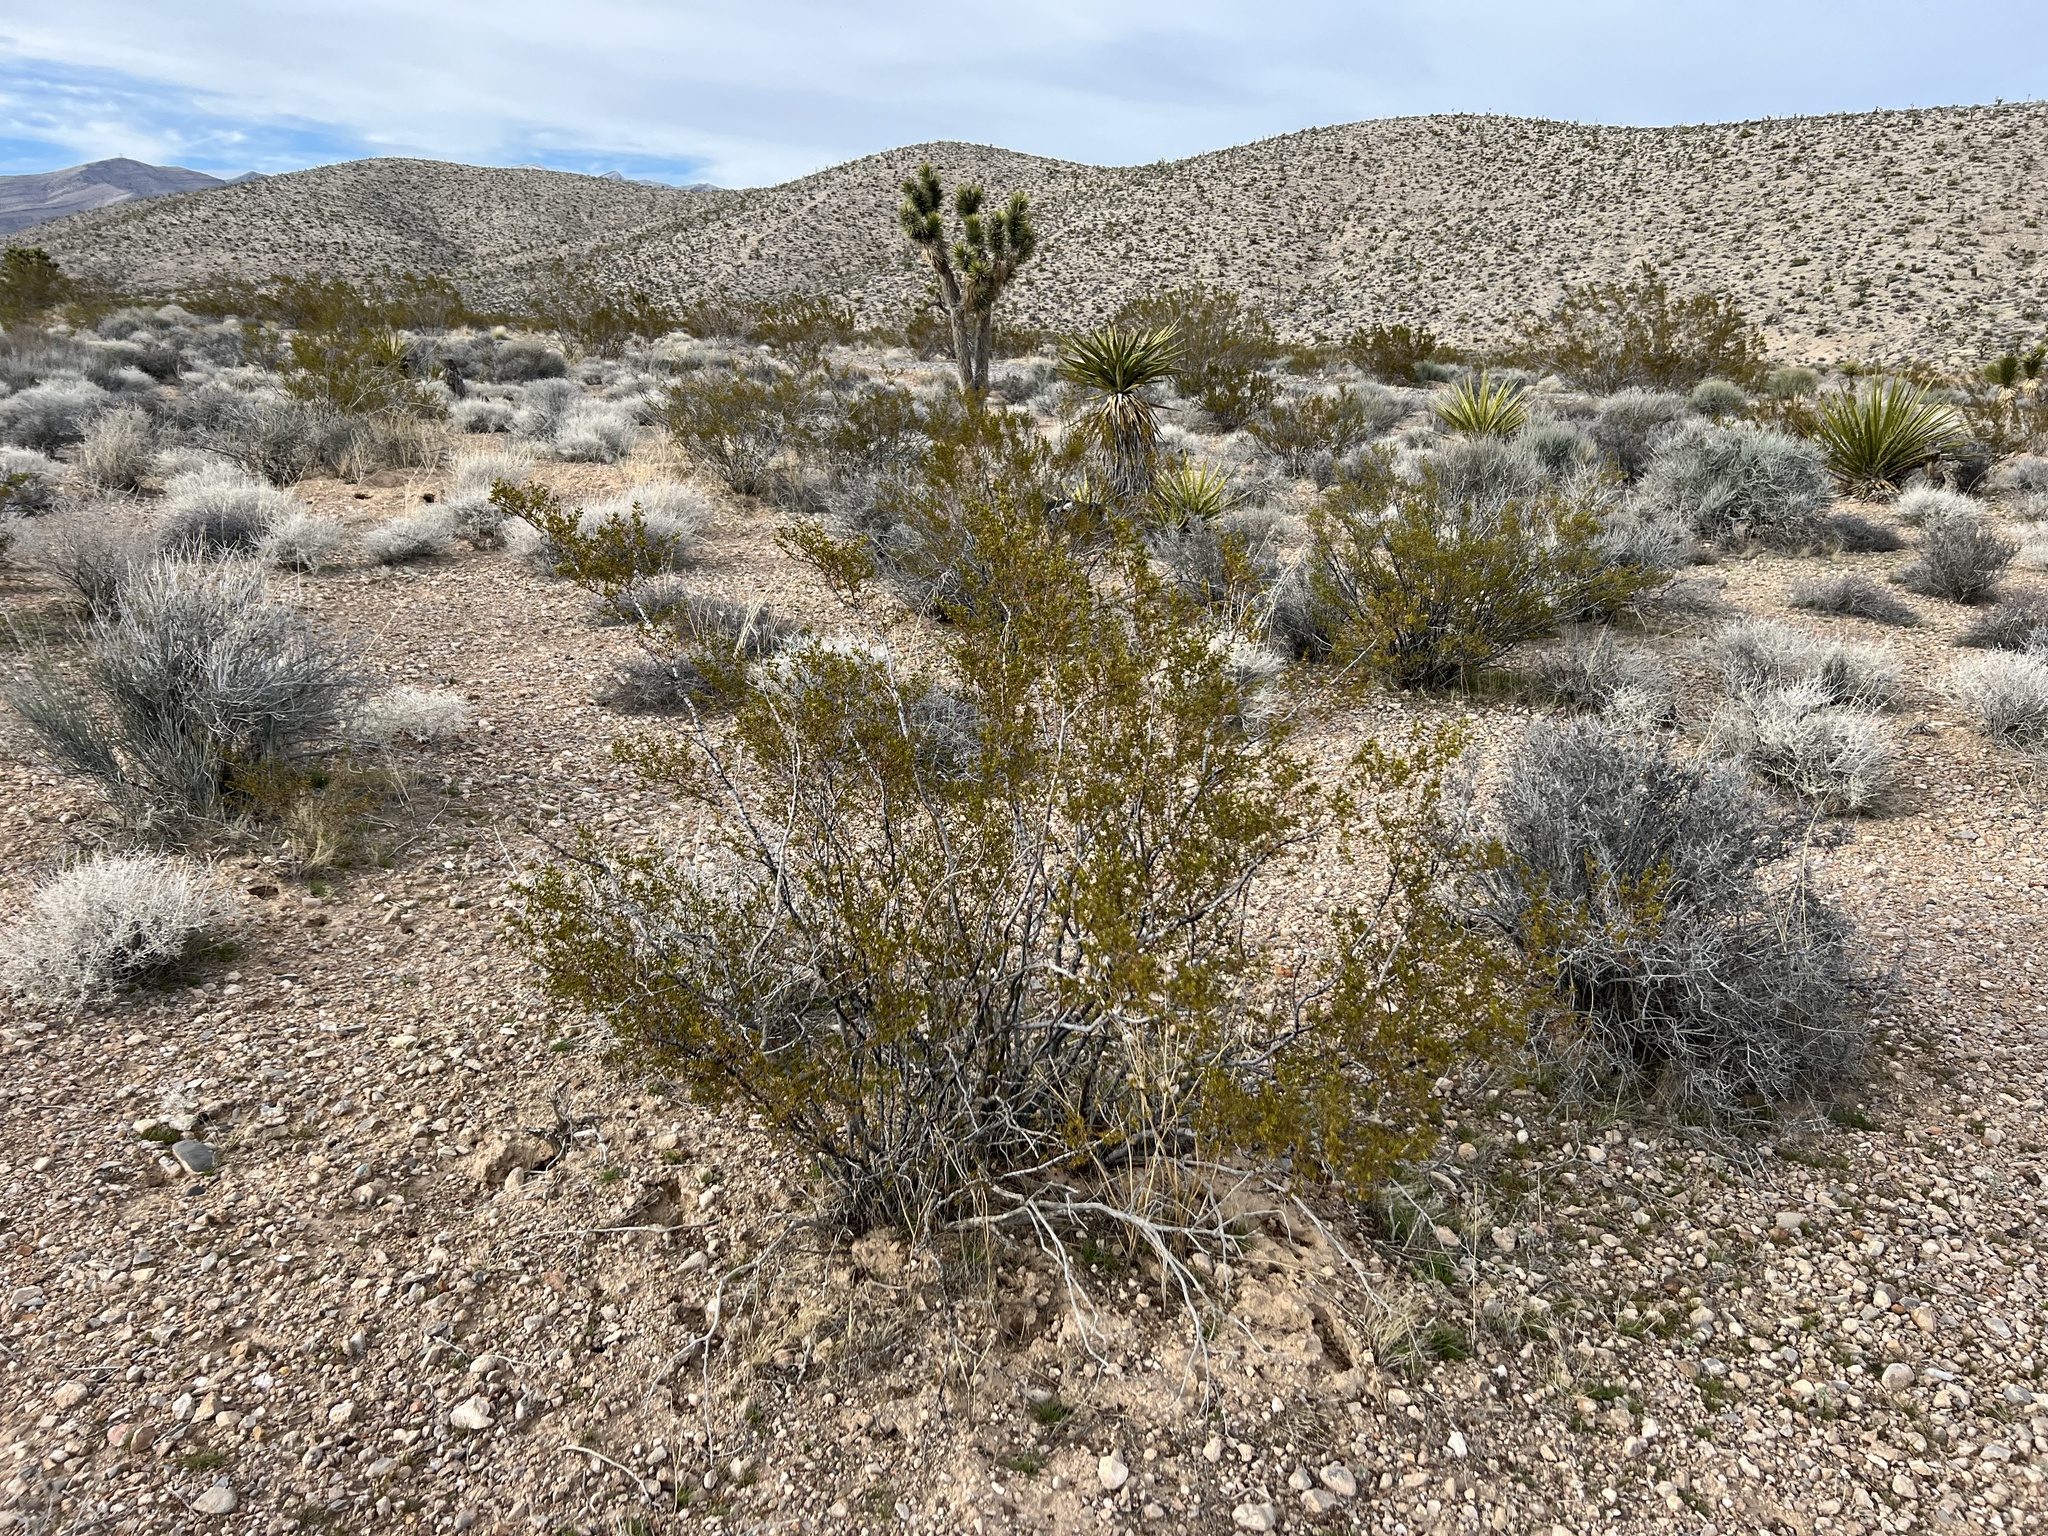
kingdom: Plantae
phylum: Tracheophyta
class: Magnoliopsida
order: Zygophyllales
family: Zygophyllaceae
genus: Larrea
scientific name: Larrea tridentata
